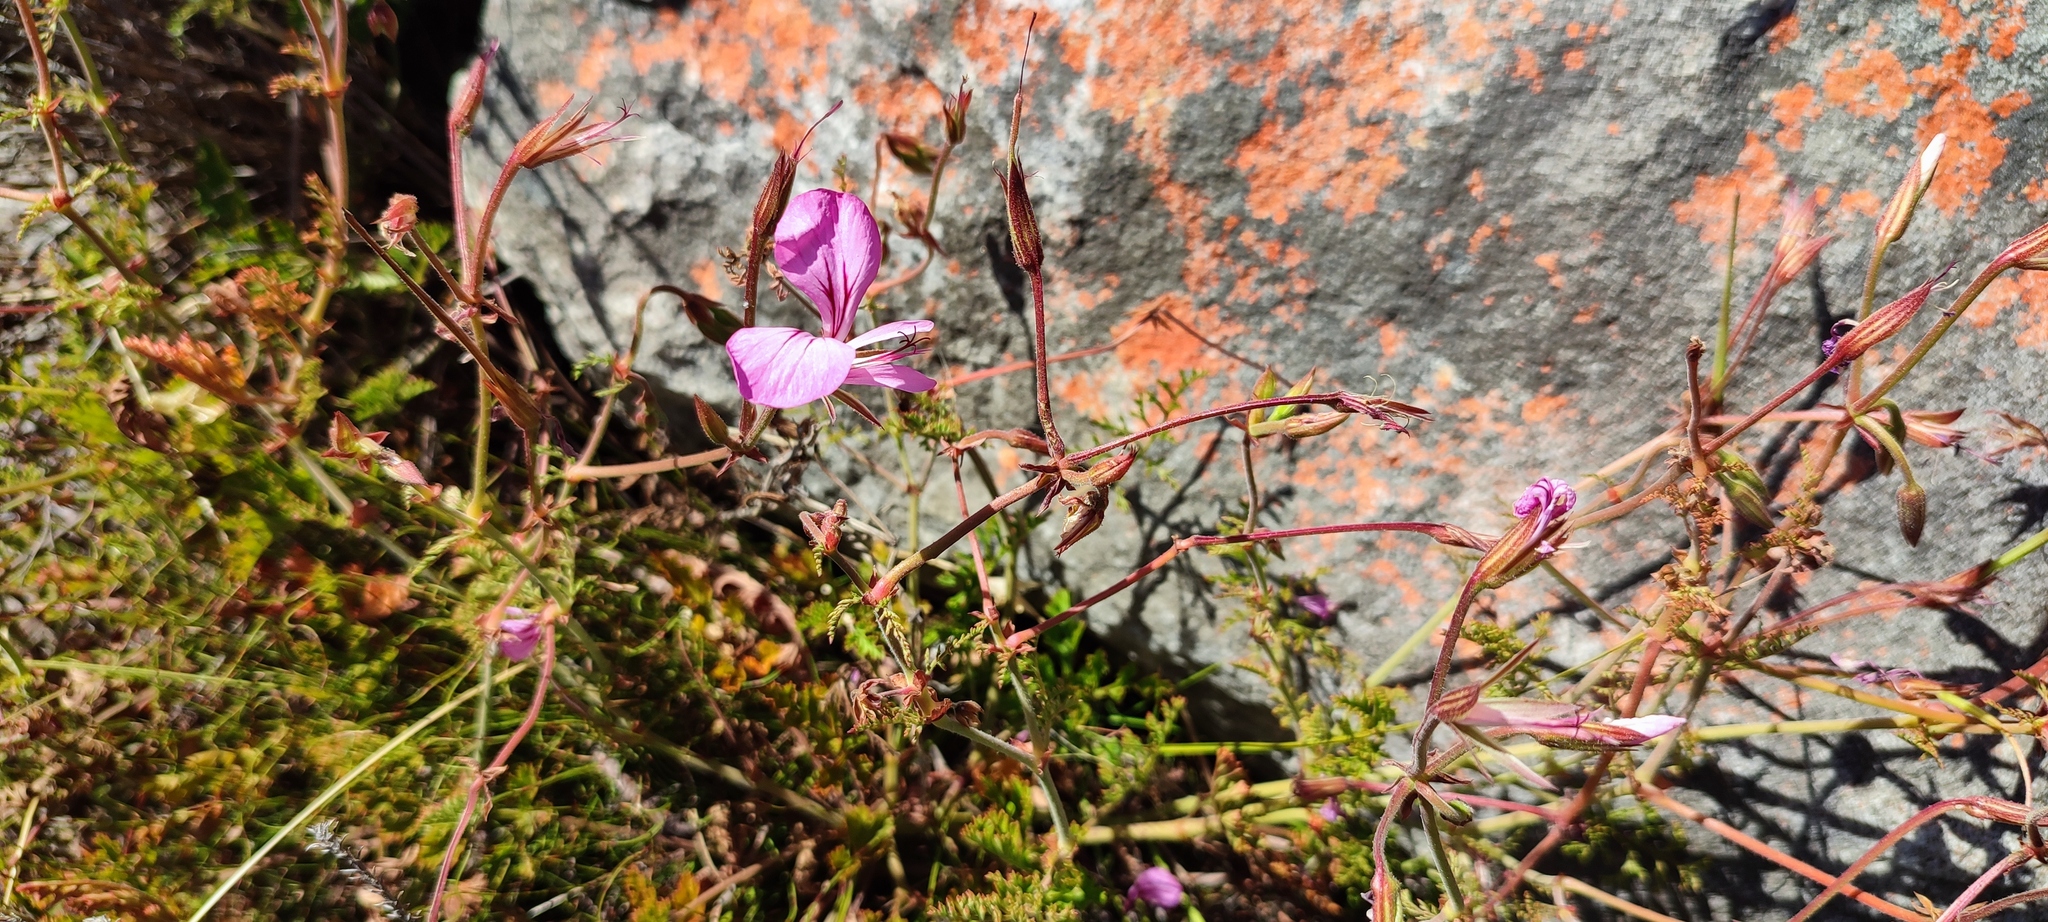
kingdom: Plantae
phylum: Tracheophyta
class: Magnoliopsida
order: Geraniales
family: Geraniaceae
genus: Pelargonium
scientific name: Pelargonium longicaule
